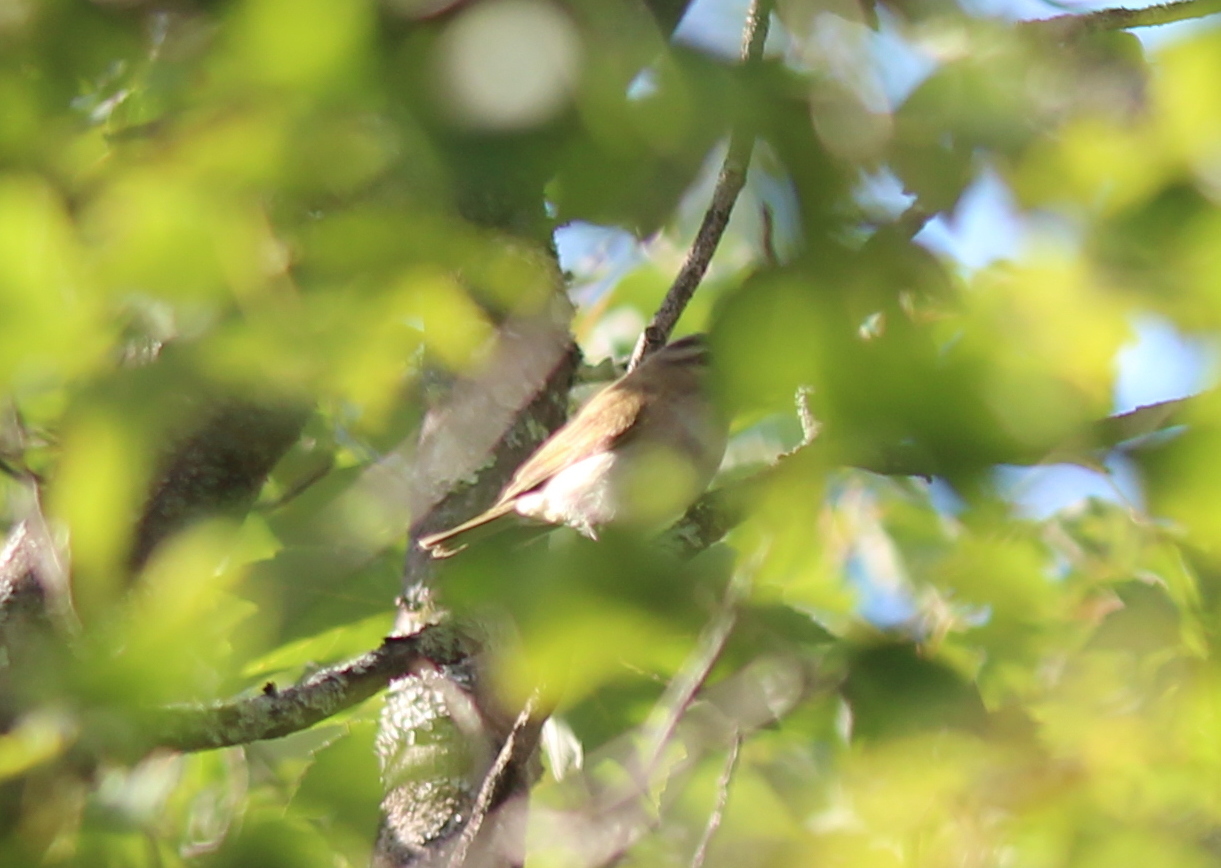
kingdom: Animalia
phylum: Chordata
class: Aves
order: Passeriformes
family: Vireonidae
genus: Vireo
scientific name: Vireo olivaceus
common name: Red-eyed vireo
